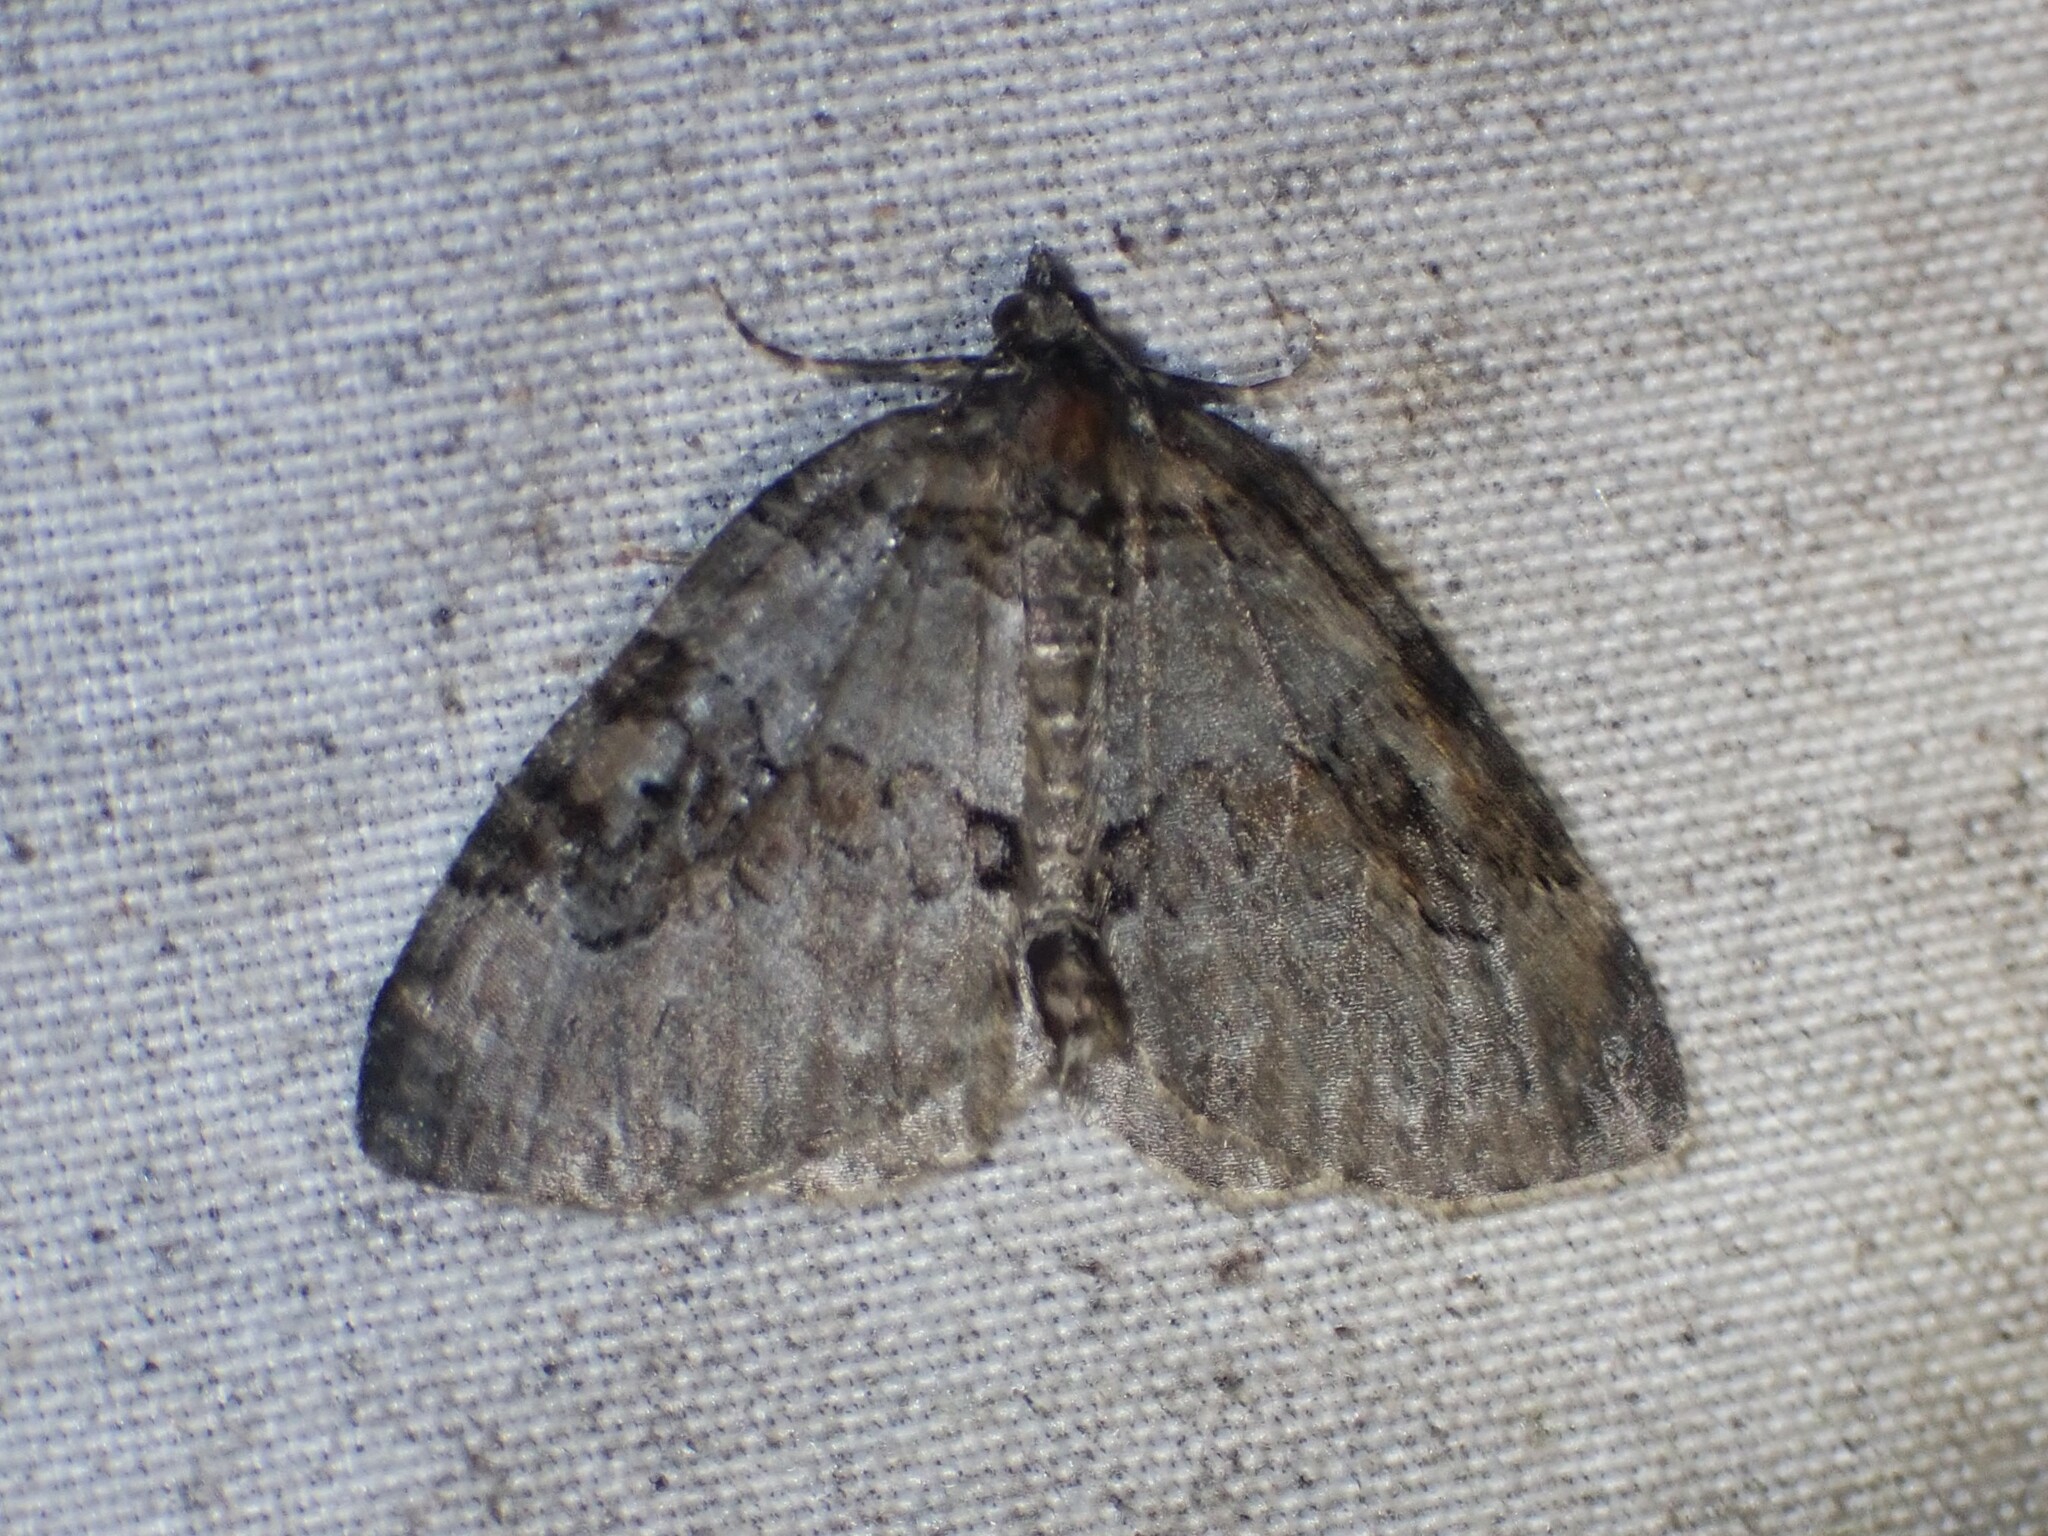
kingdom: Animalia
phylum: Arthropoda
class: Insecta
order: Lepidoptera
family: Geometridae
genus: Plemyria
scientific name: Plemyria georgii
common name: George's carpet moth
